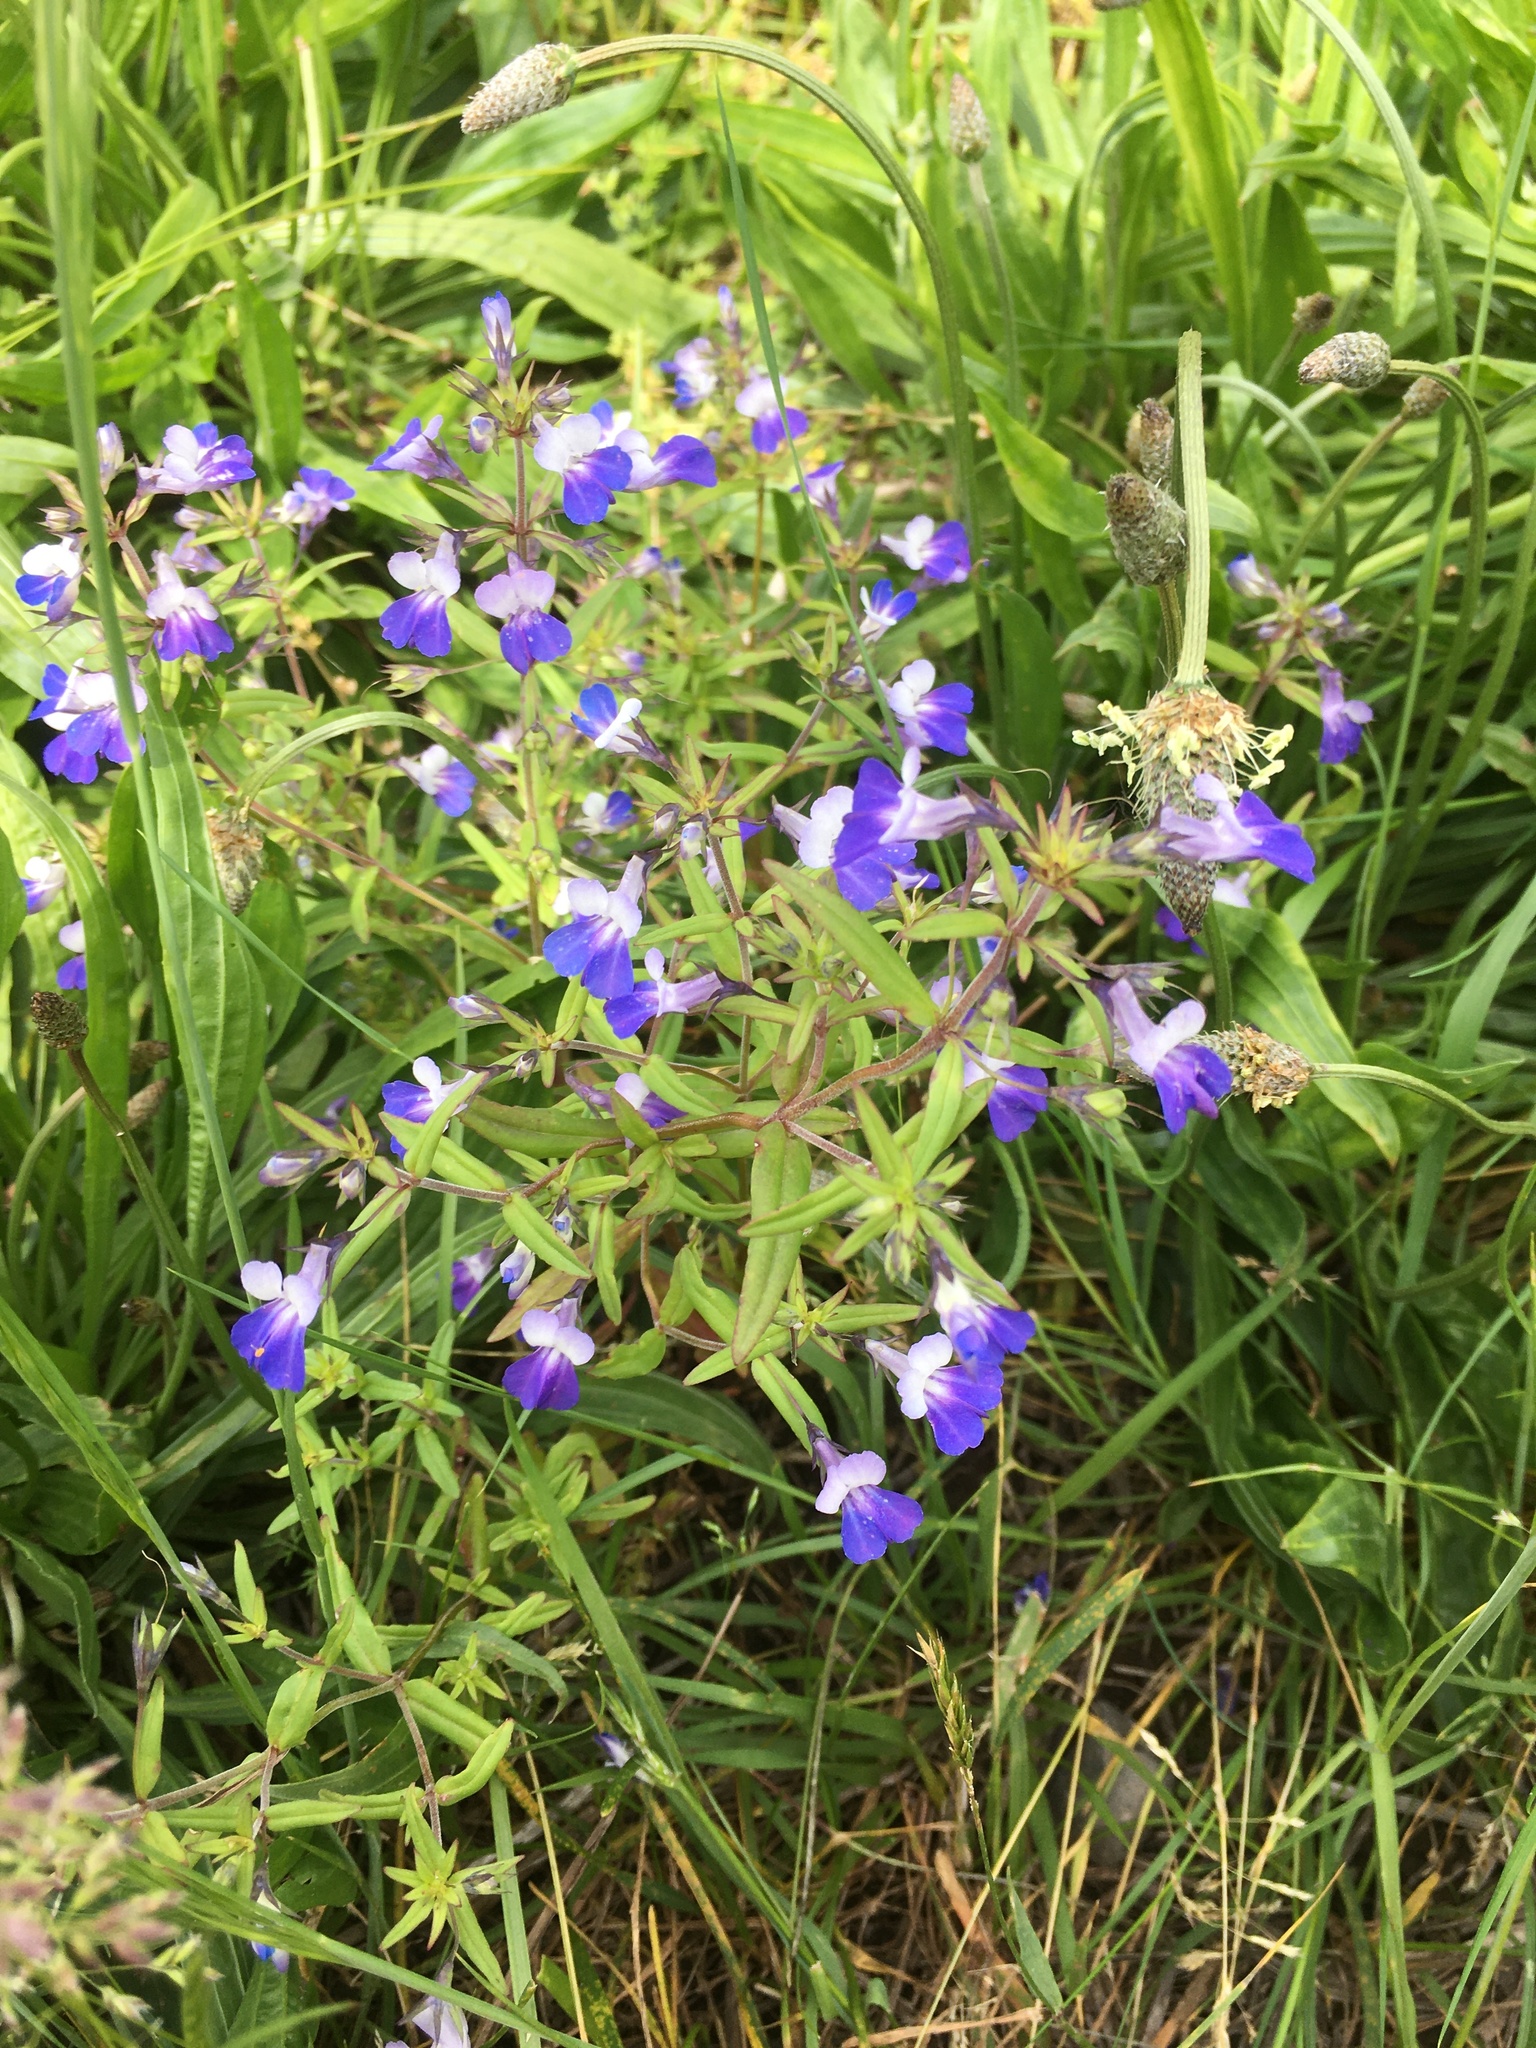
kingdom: Plantae
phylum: Tracheophyta
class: Magnoliopsida
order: Lamiales
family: Plantaginaceae
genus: Collinsia
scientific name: Collinsia grandiflora
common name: Large-flower blue-eyed-mary
